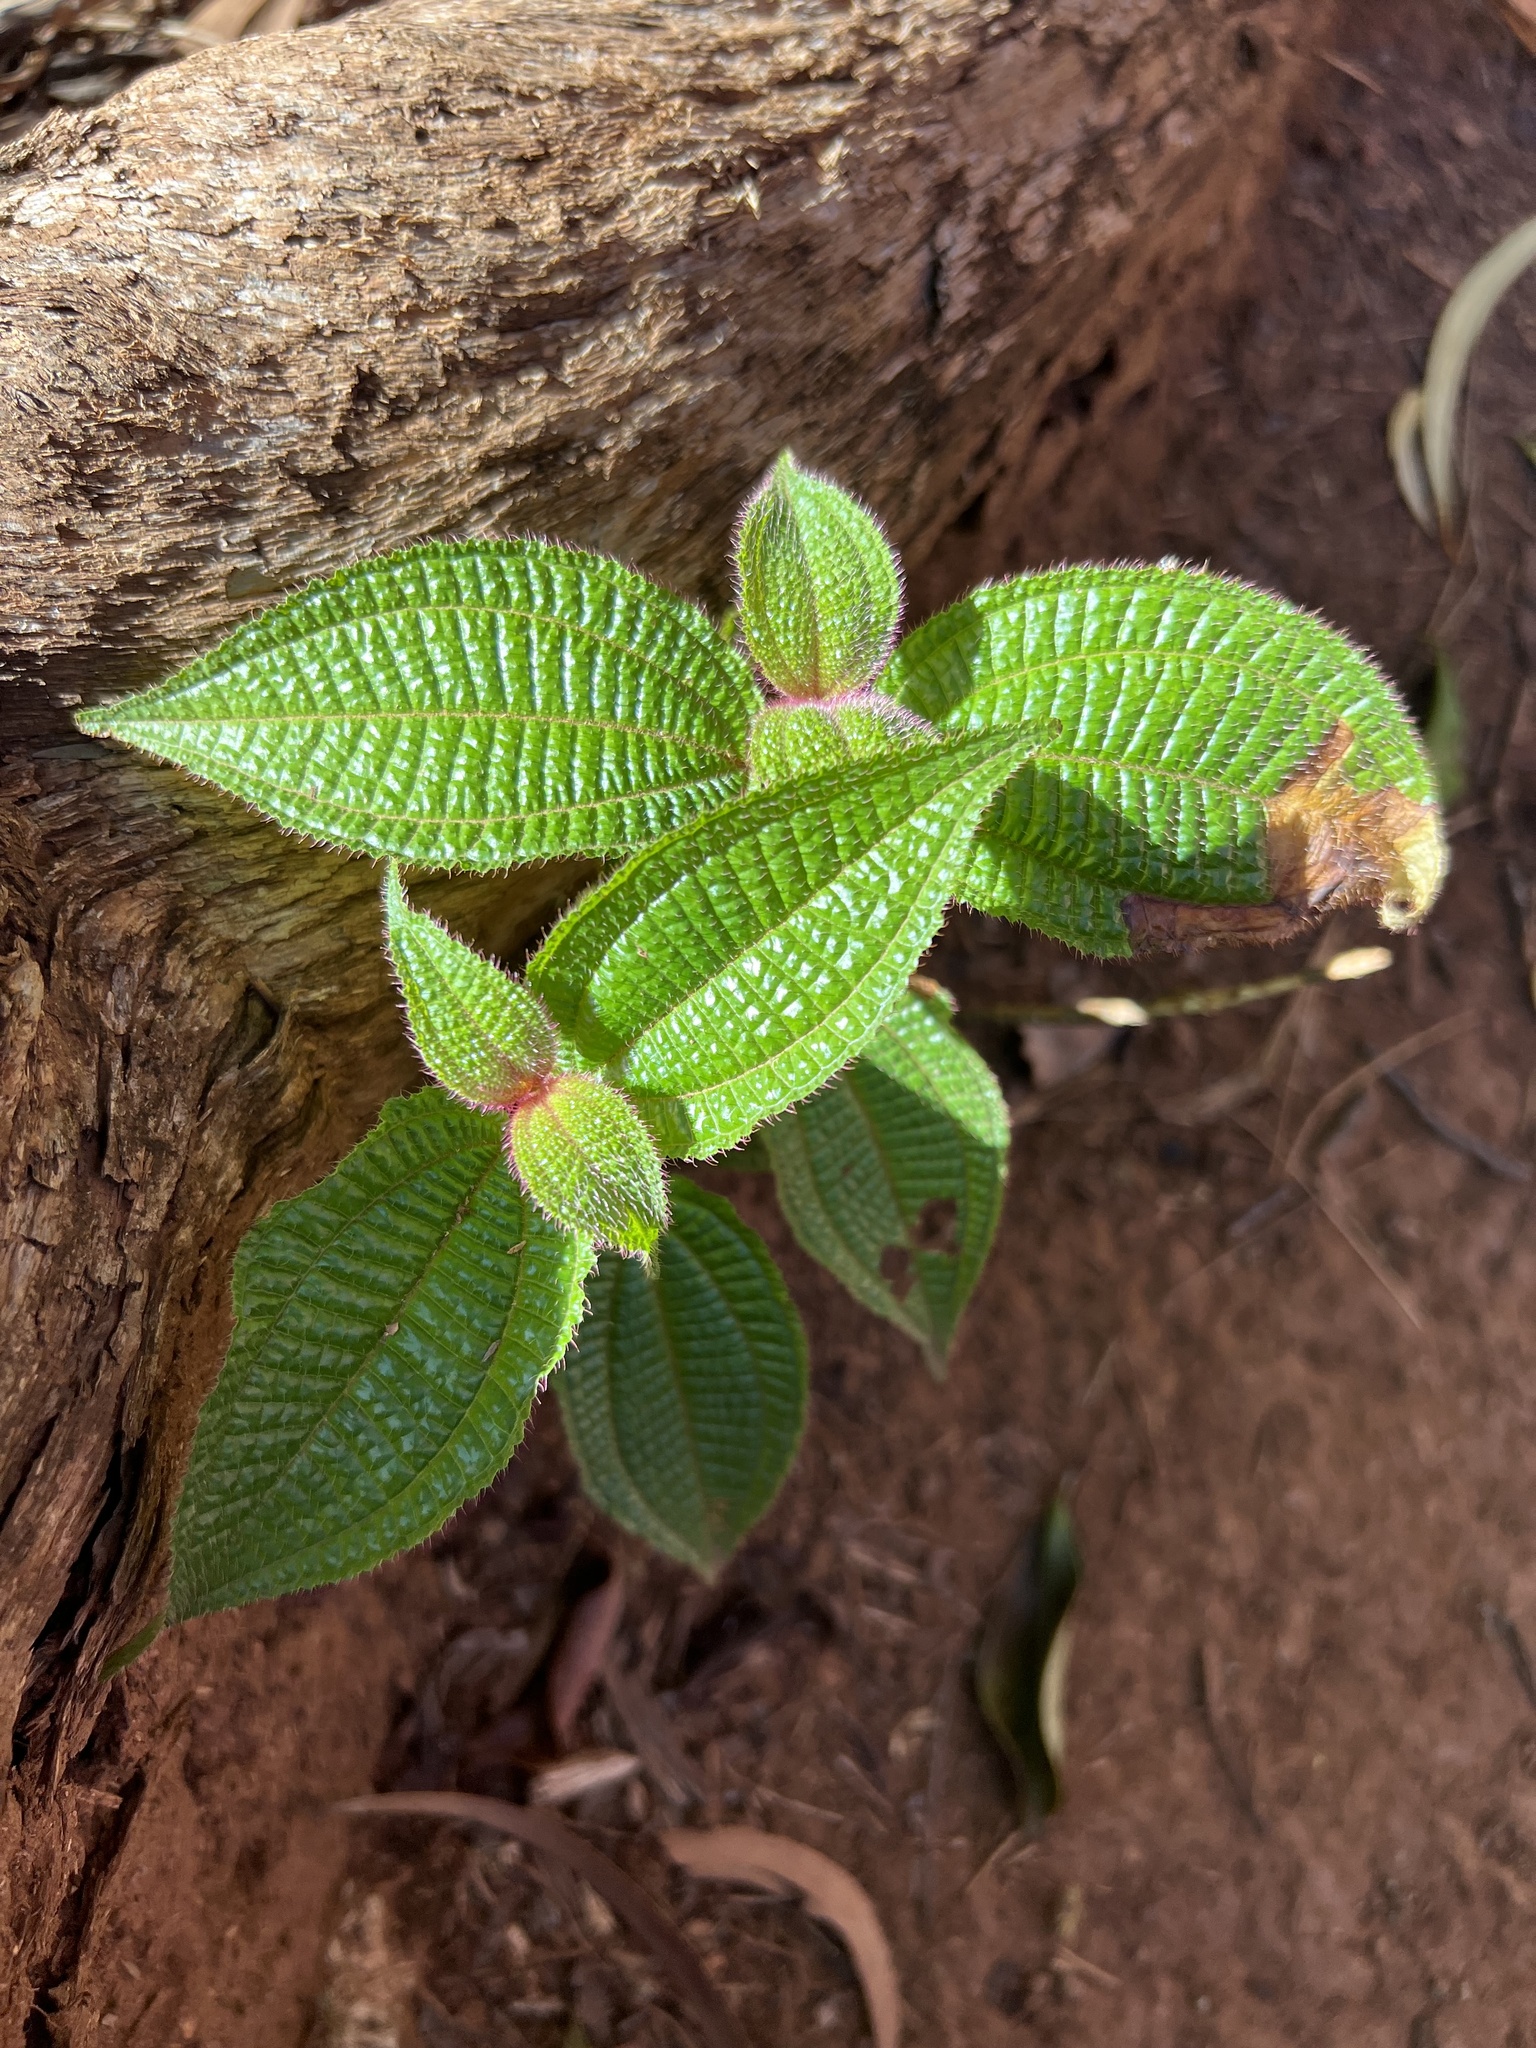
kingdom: Plantae
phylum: Tracheophyta
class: Magnoliopsida
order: Myrtales
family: Melastomataceae
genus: Miconia
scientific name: Miconia crenata
